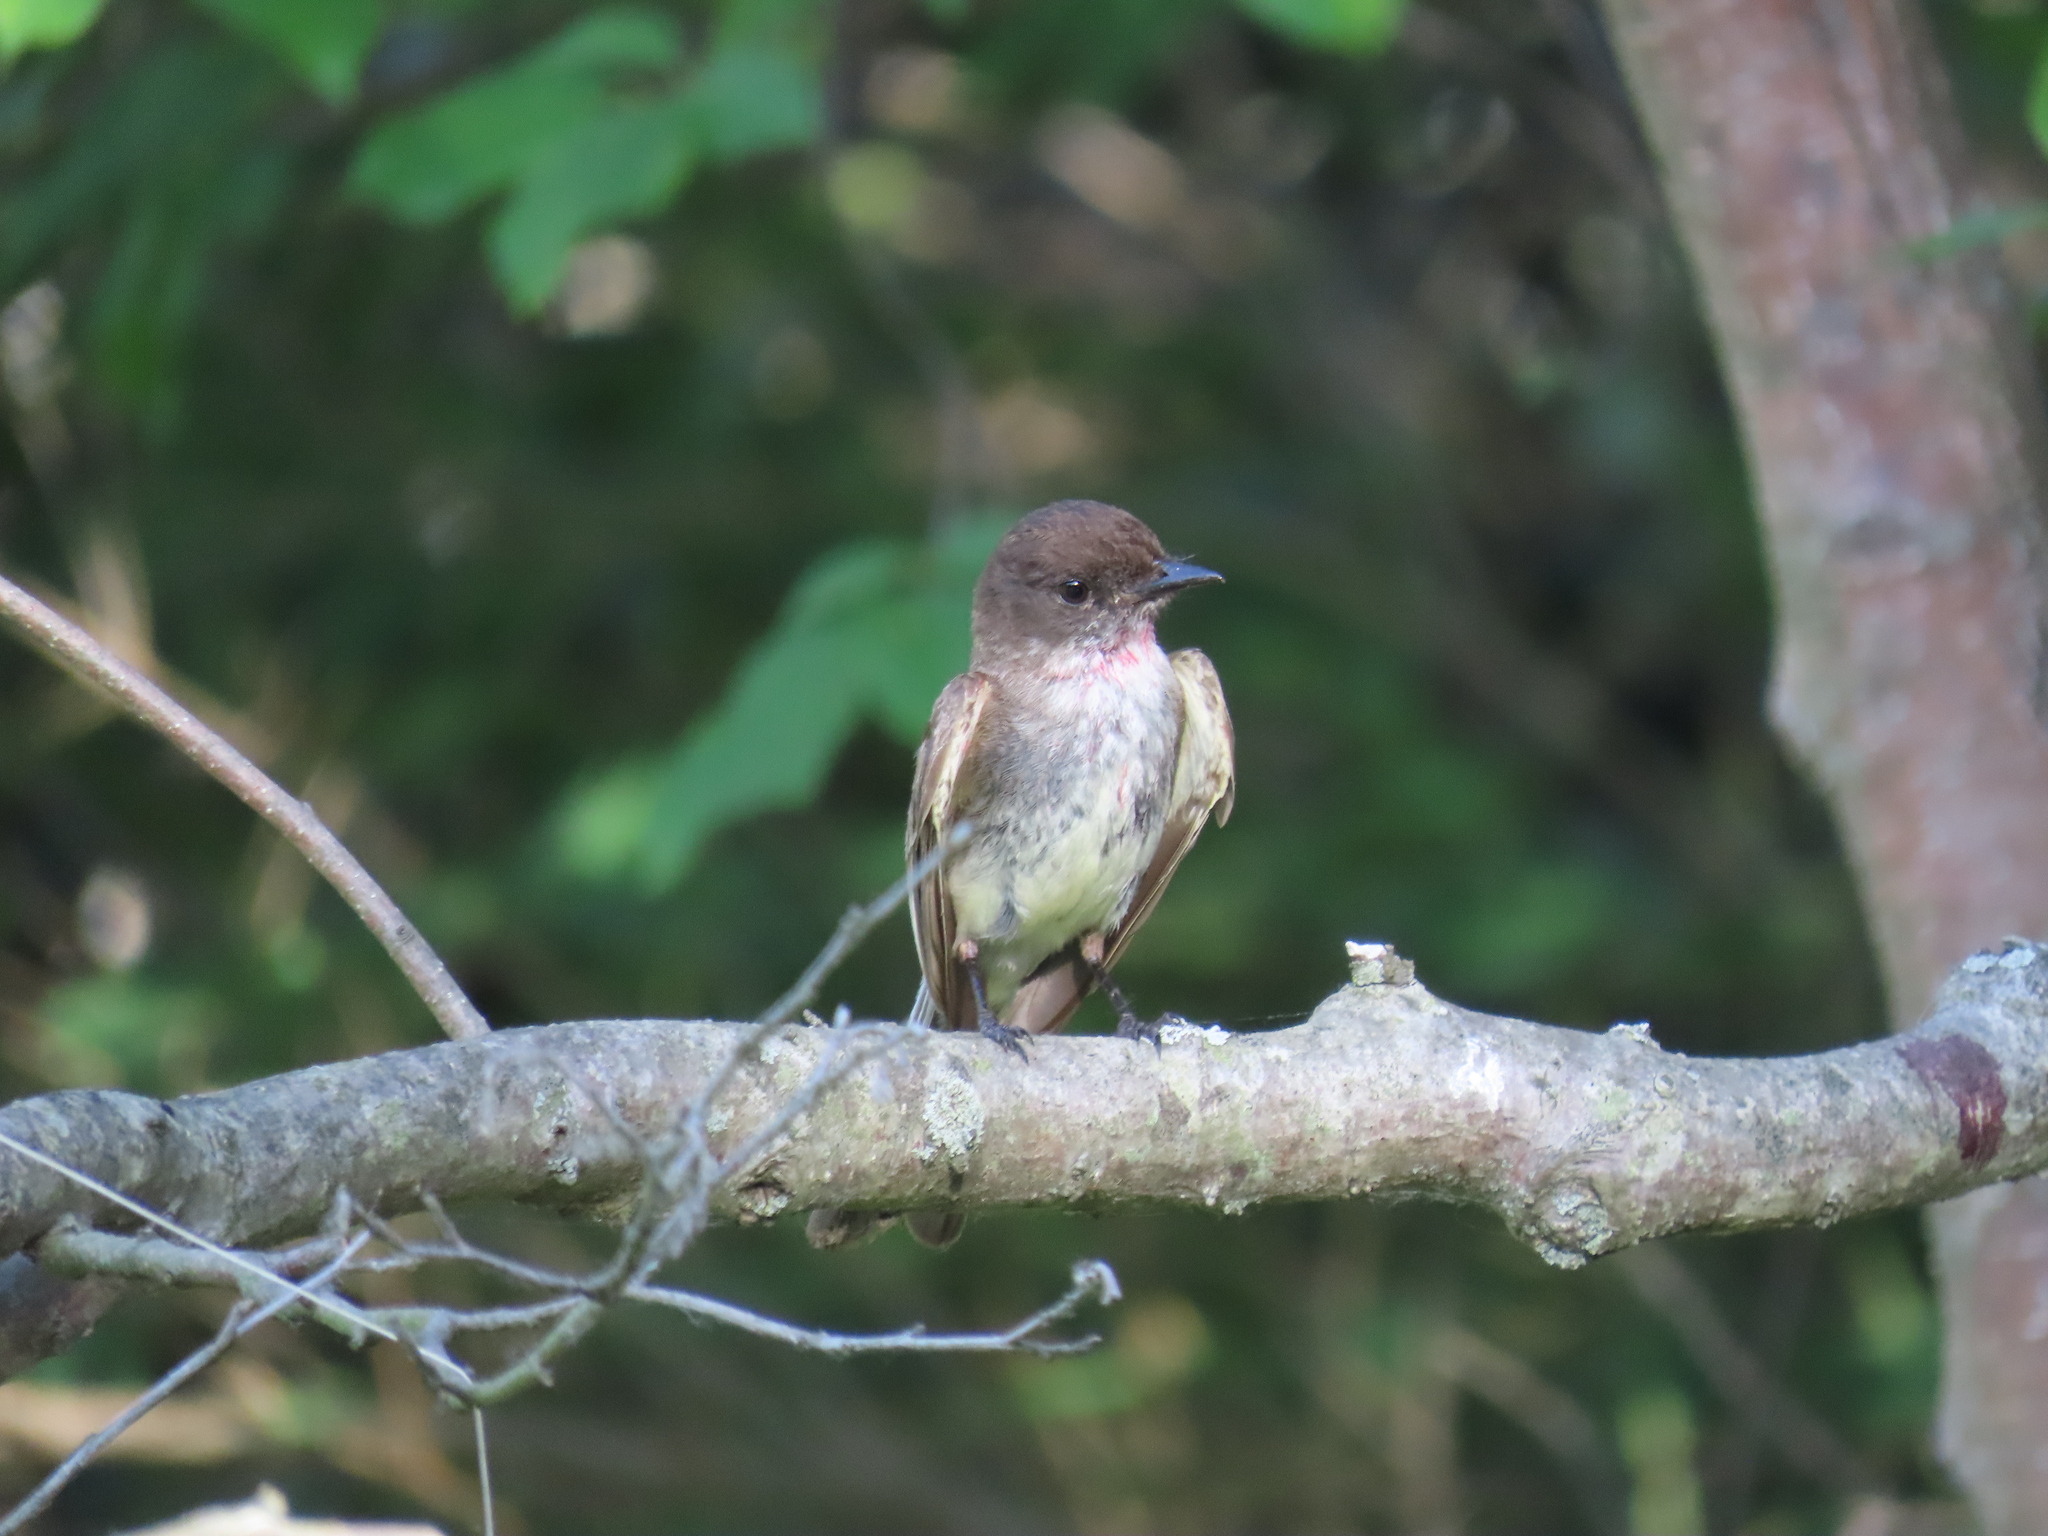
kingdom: Animalia
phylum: Chordata
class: Aves
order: Passeriformes
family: Tyrannidae
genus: Sayornis
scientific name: Sayornis phoebe
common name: Eastern phoebe
